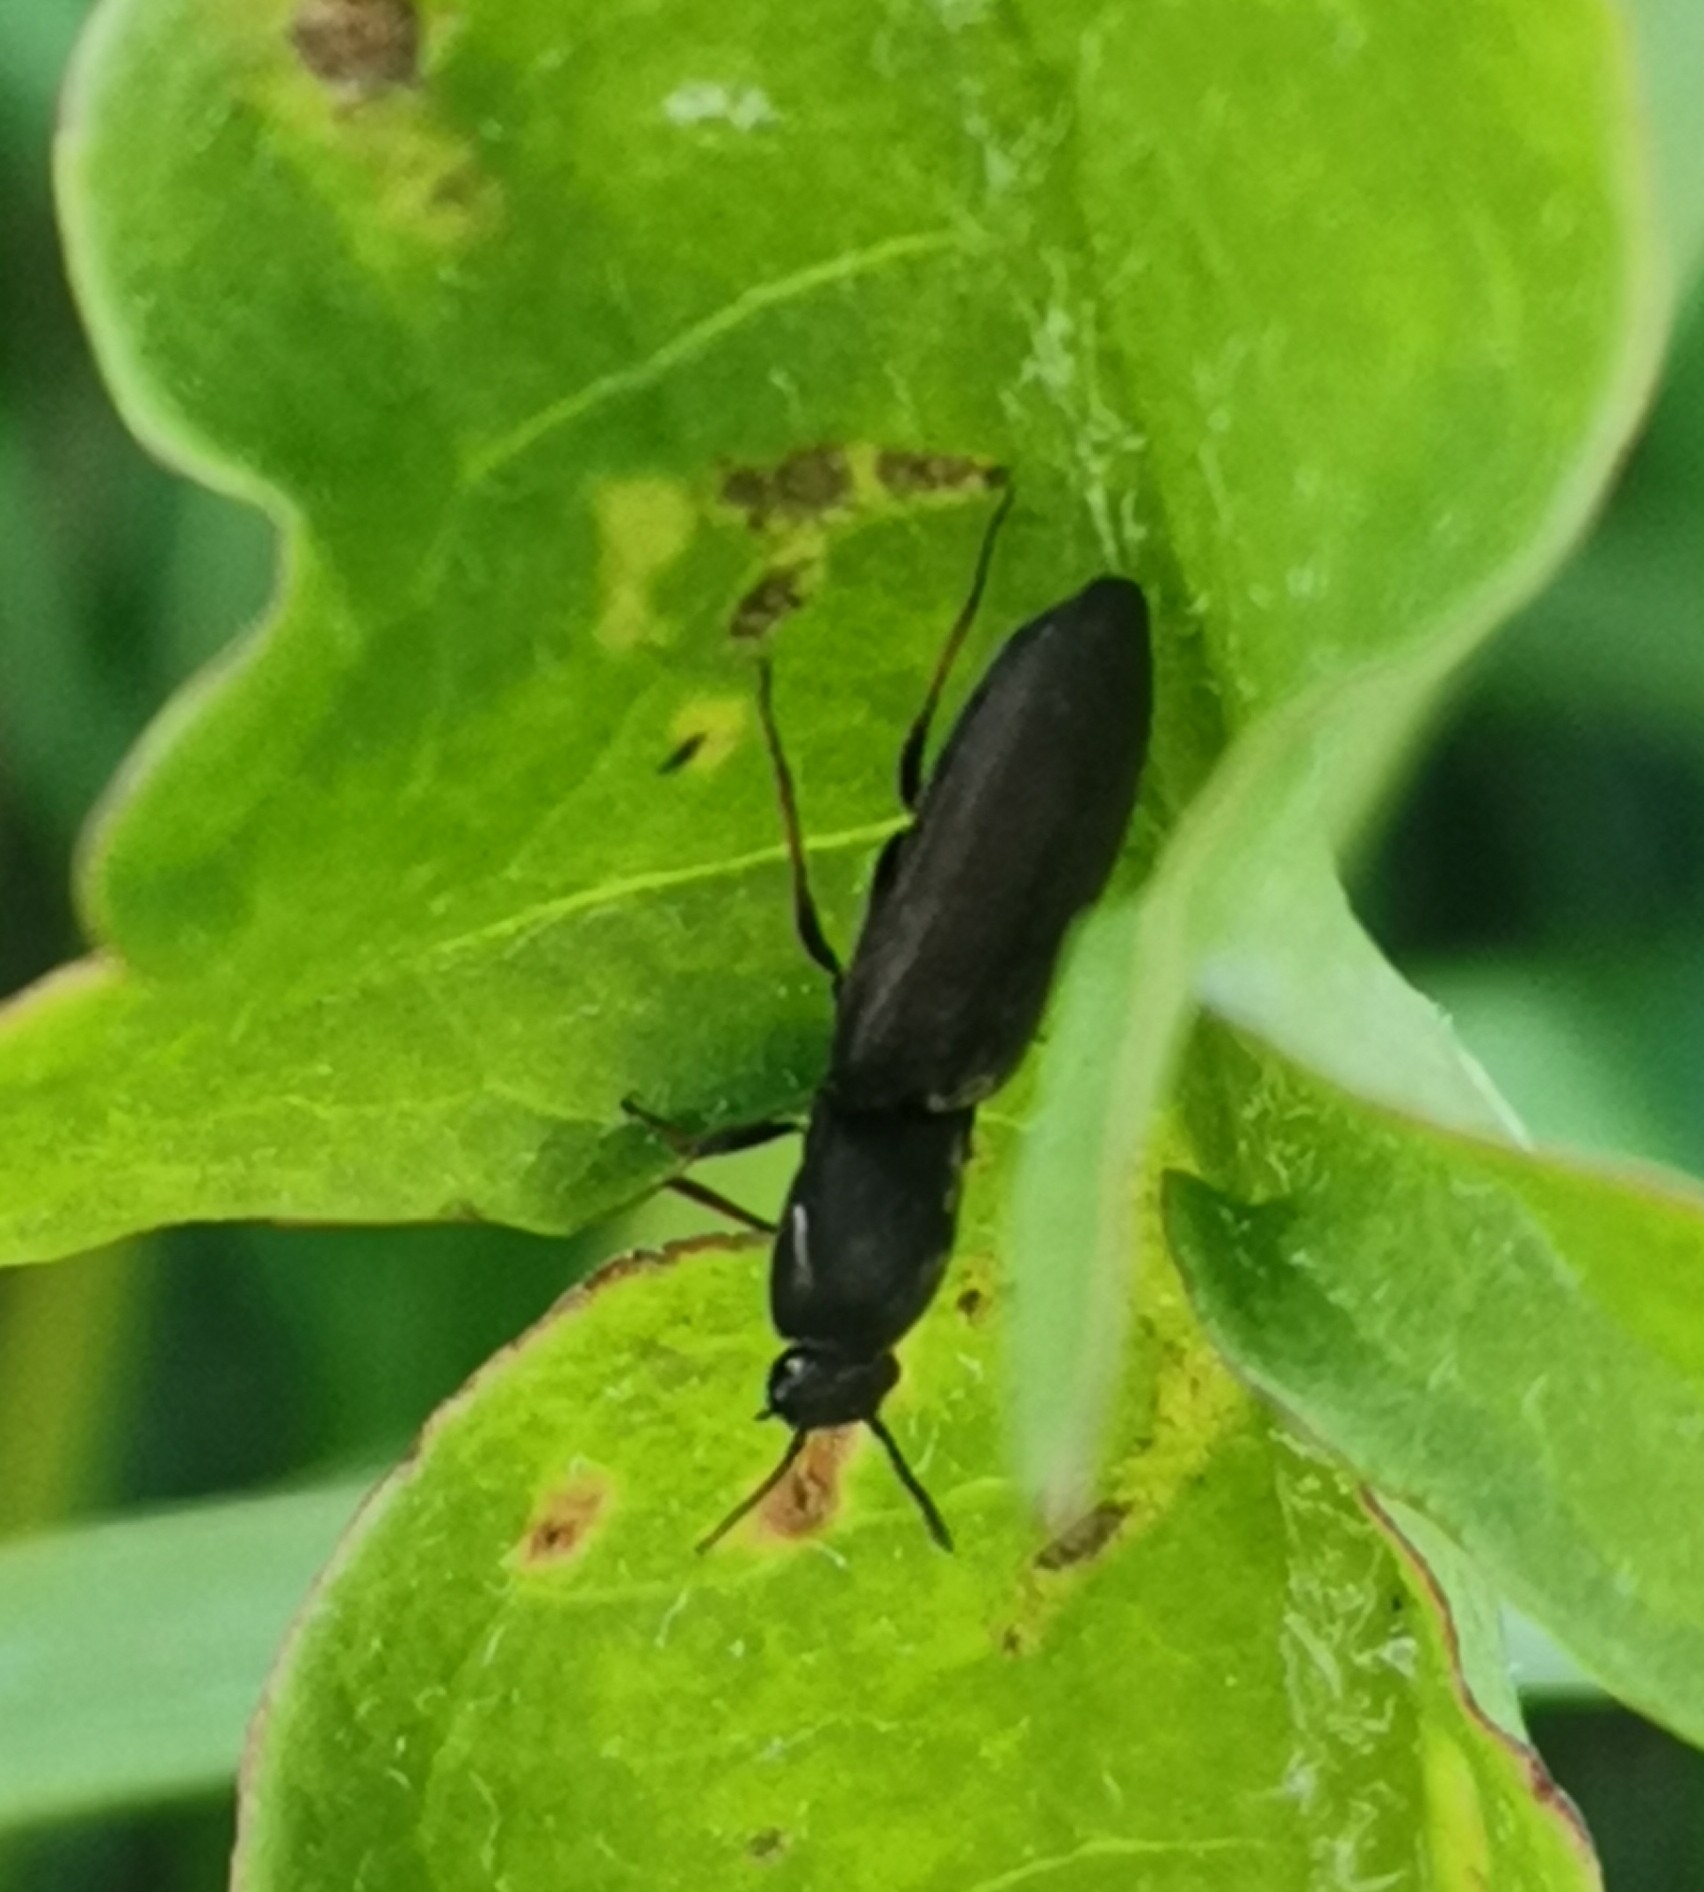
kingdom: Animalia
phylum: Arthropoda
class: Insecta
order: Coleoptera
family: Elateridae
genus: Aplotarsus
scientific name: Aplotarsus incanus
